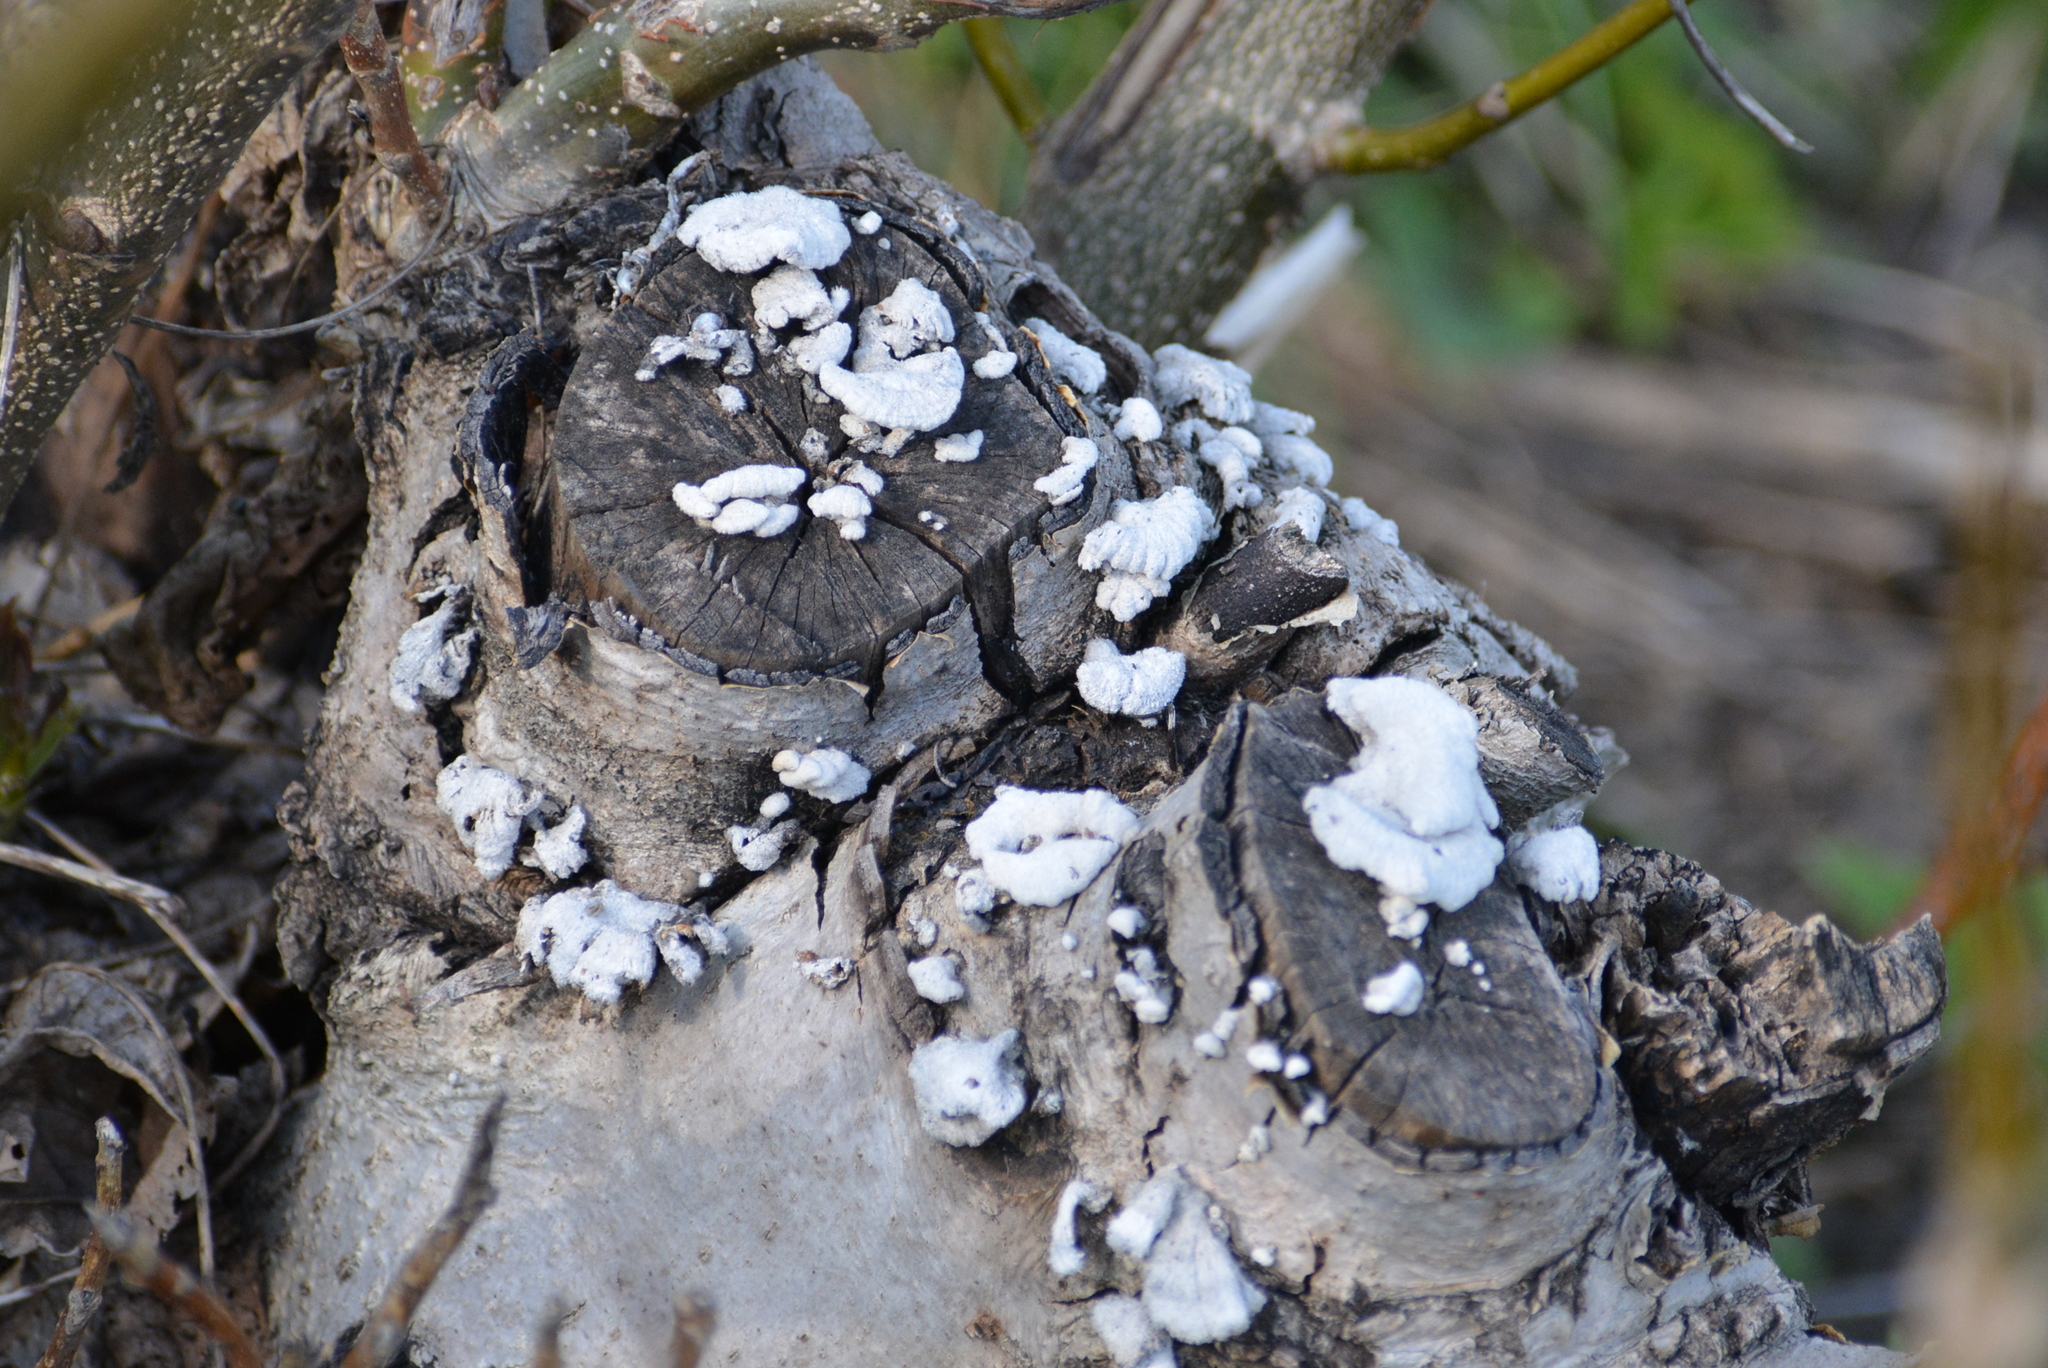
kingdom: Fungi
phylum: Basidiomycota
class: Agaricomycetes
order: Agaricales
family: Schizophyllaceae
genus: Schizophyllum
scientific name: Schizophyllum commune
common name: Common porecrust
